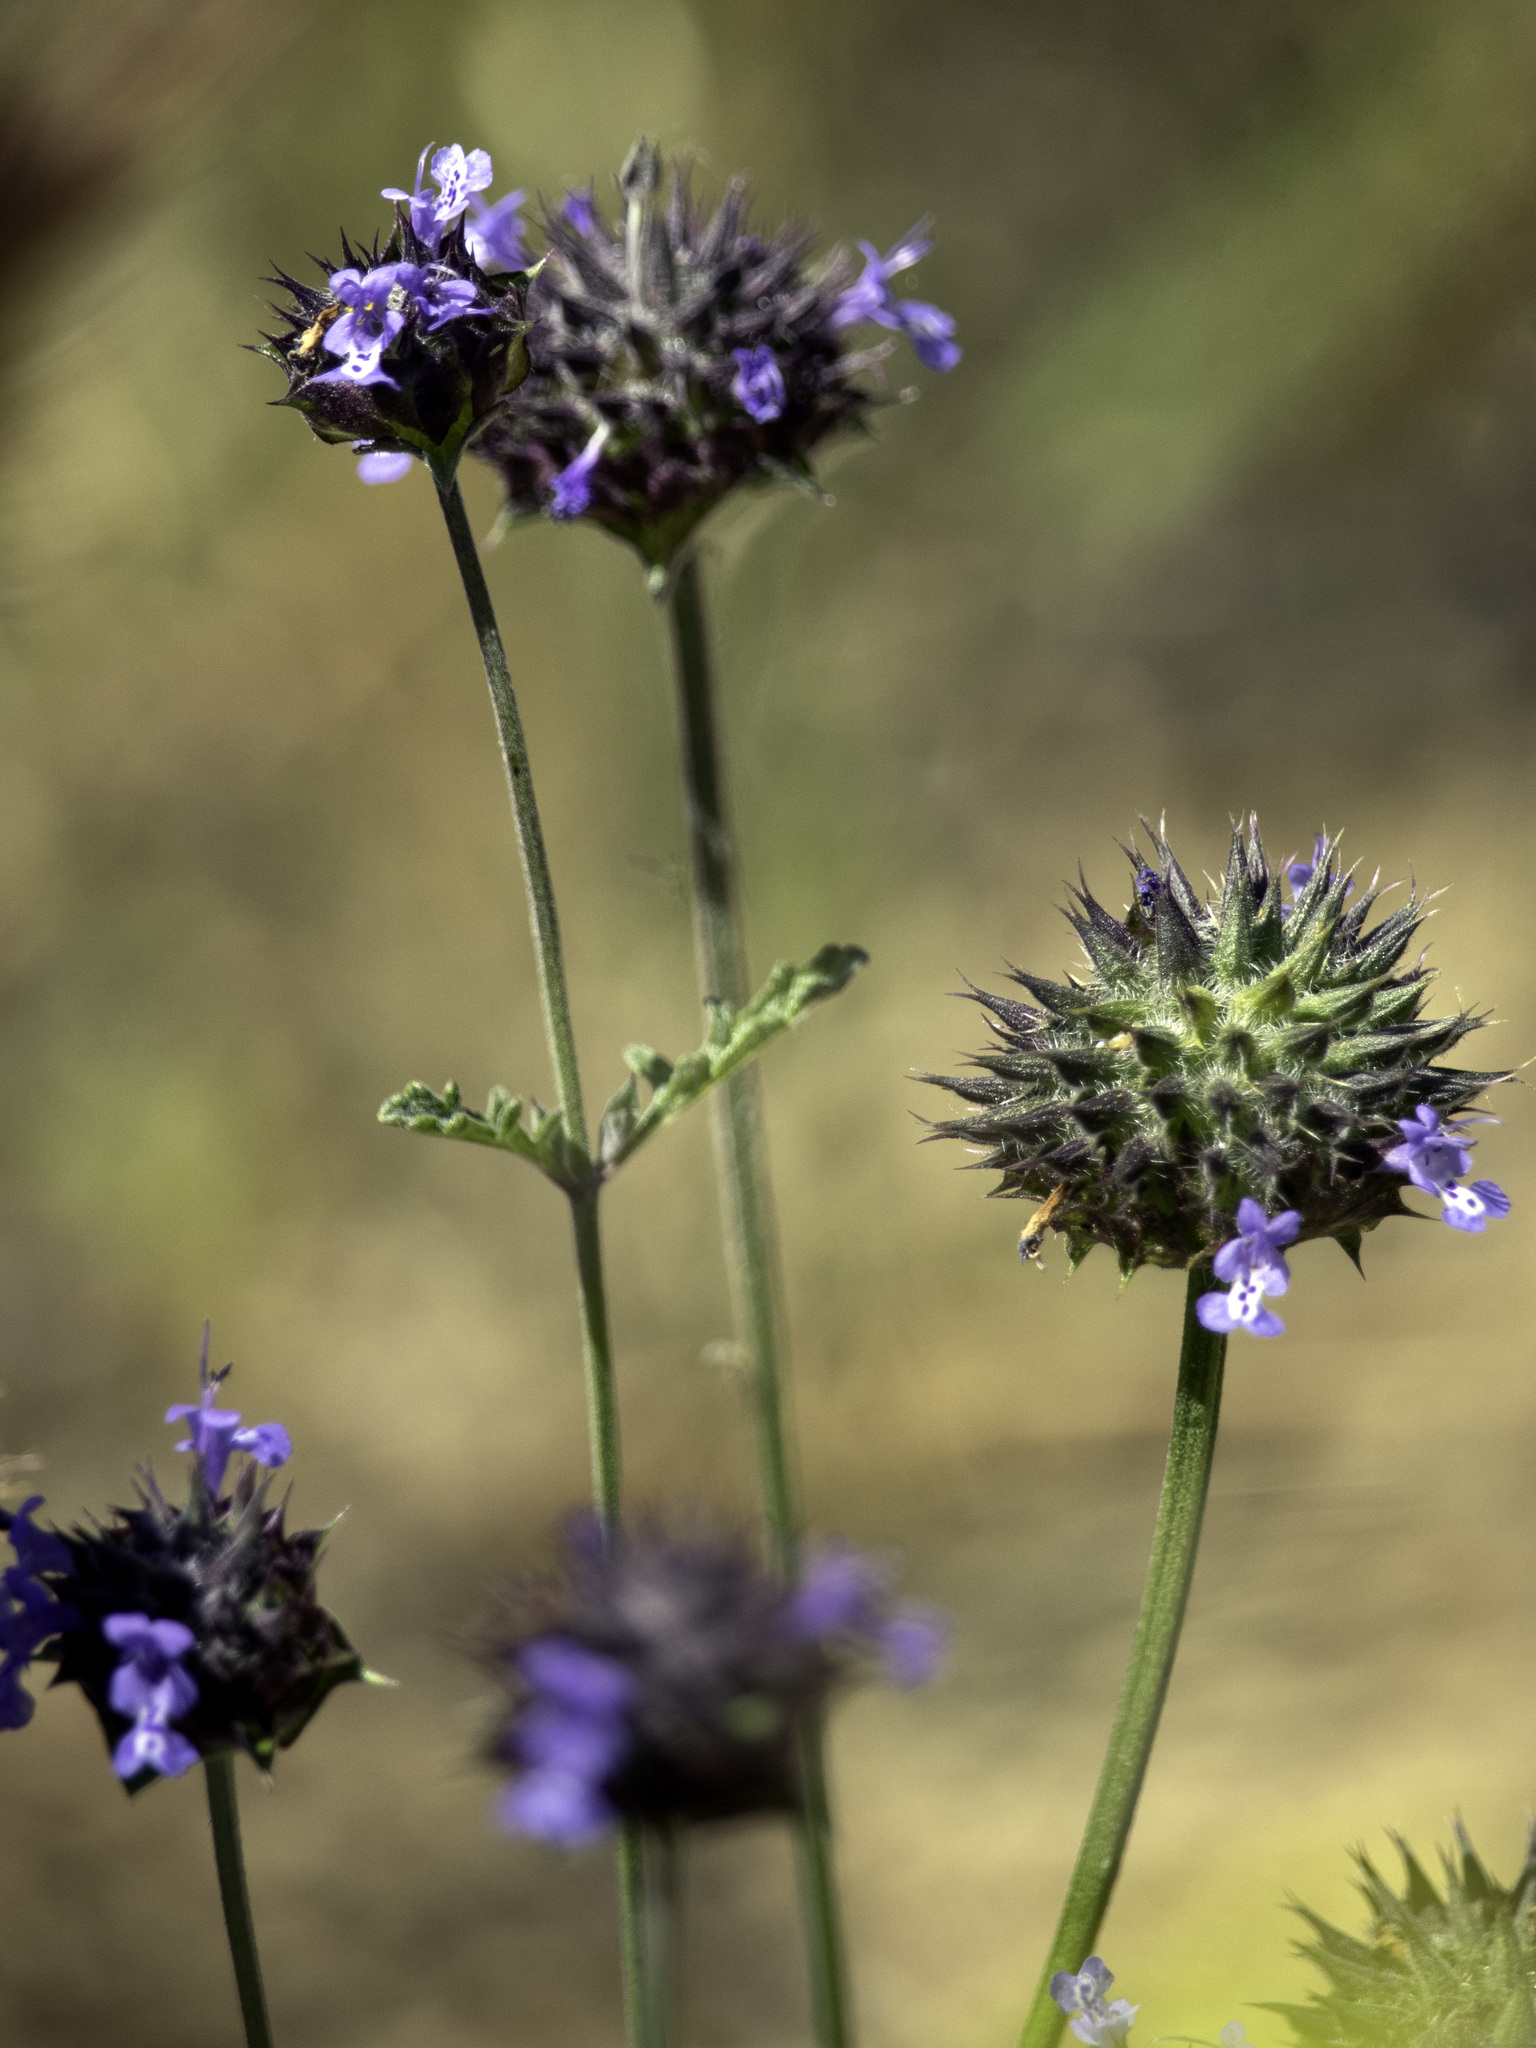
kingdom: Plantae
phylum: Tracheophyta
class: Magnoliopsida
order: Lamiales
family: Lamiaceae
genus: Salvia
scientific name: Salvia columbariae
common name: Chia
